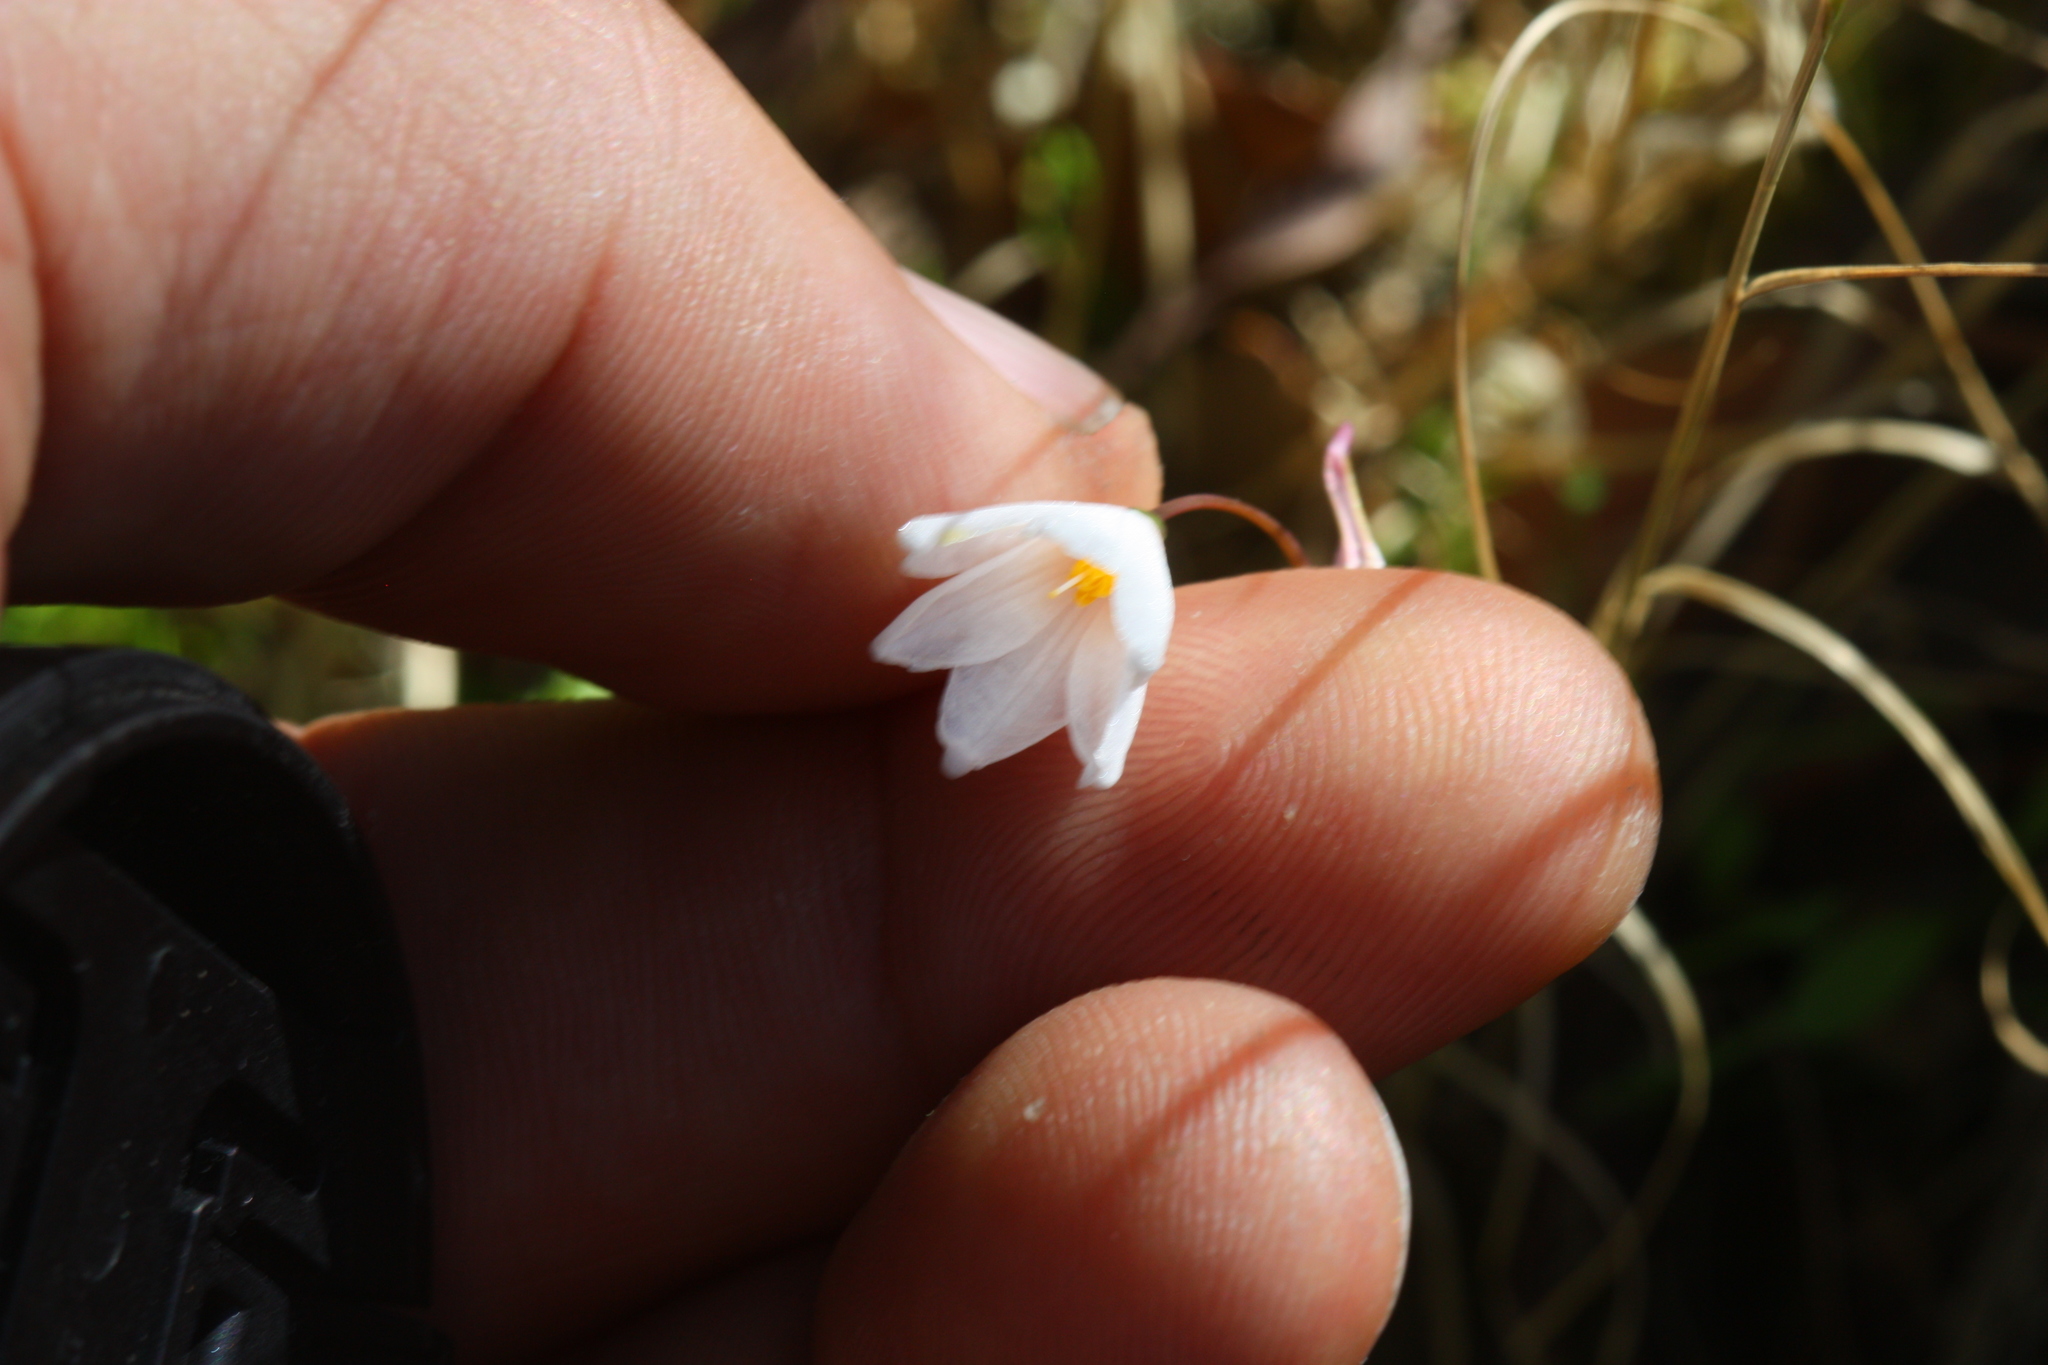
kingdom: Plantae
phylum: Tracheophyta
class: Liliopsida
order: Asparagales
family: Amaryllidaceae
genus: Acis
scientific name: Acis autumnalis
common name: Autumn snowflake
